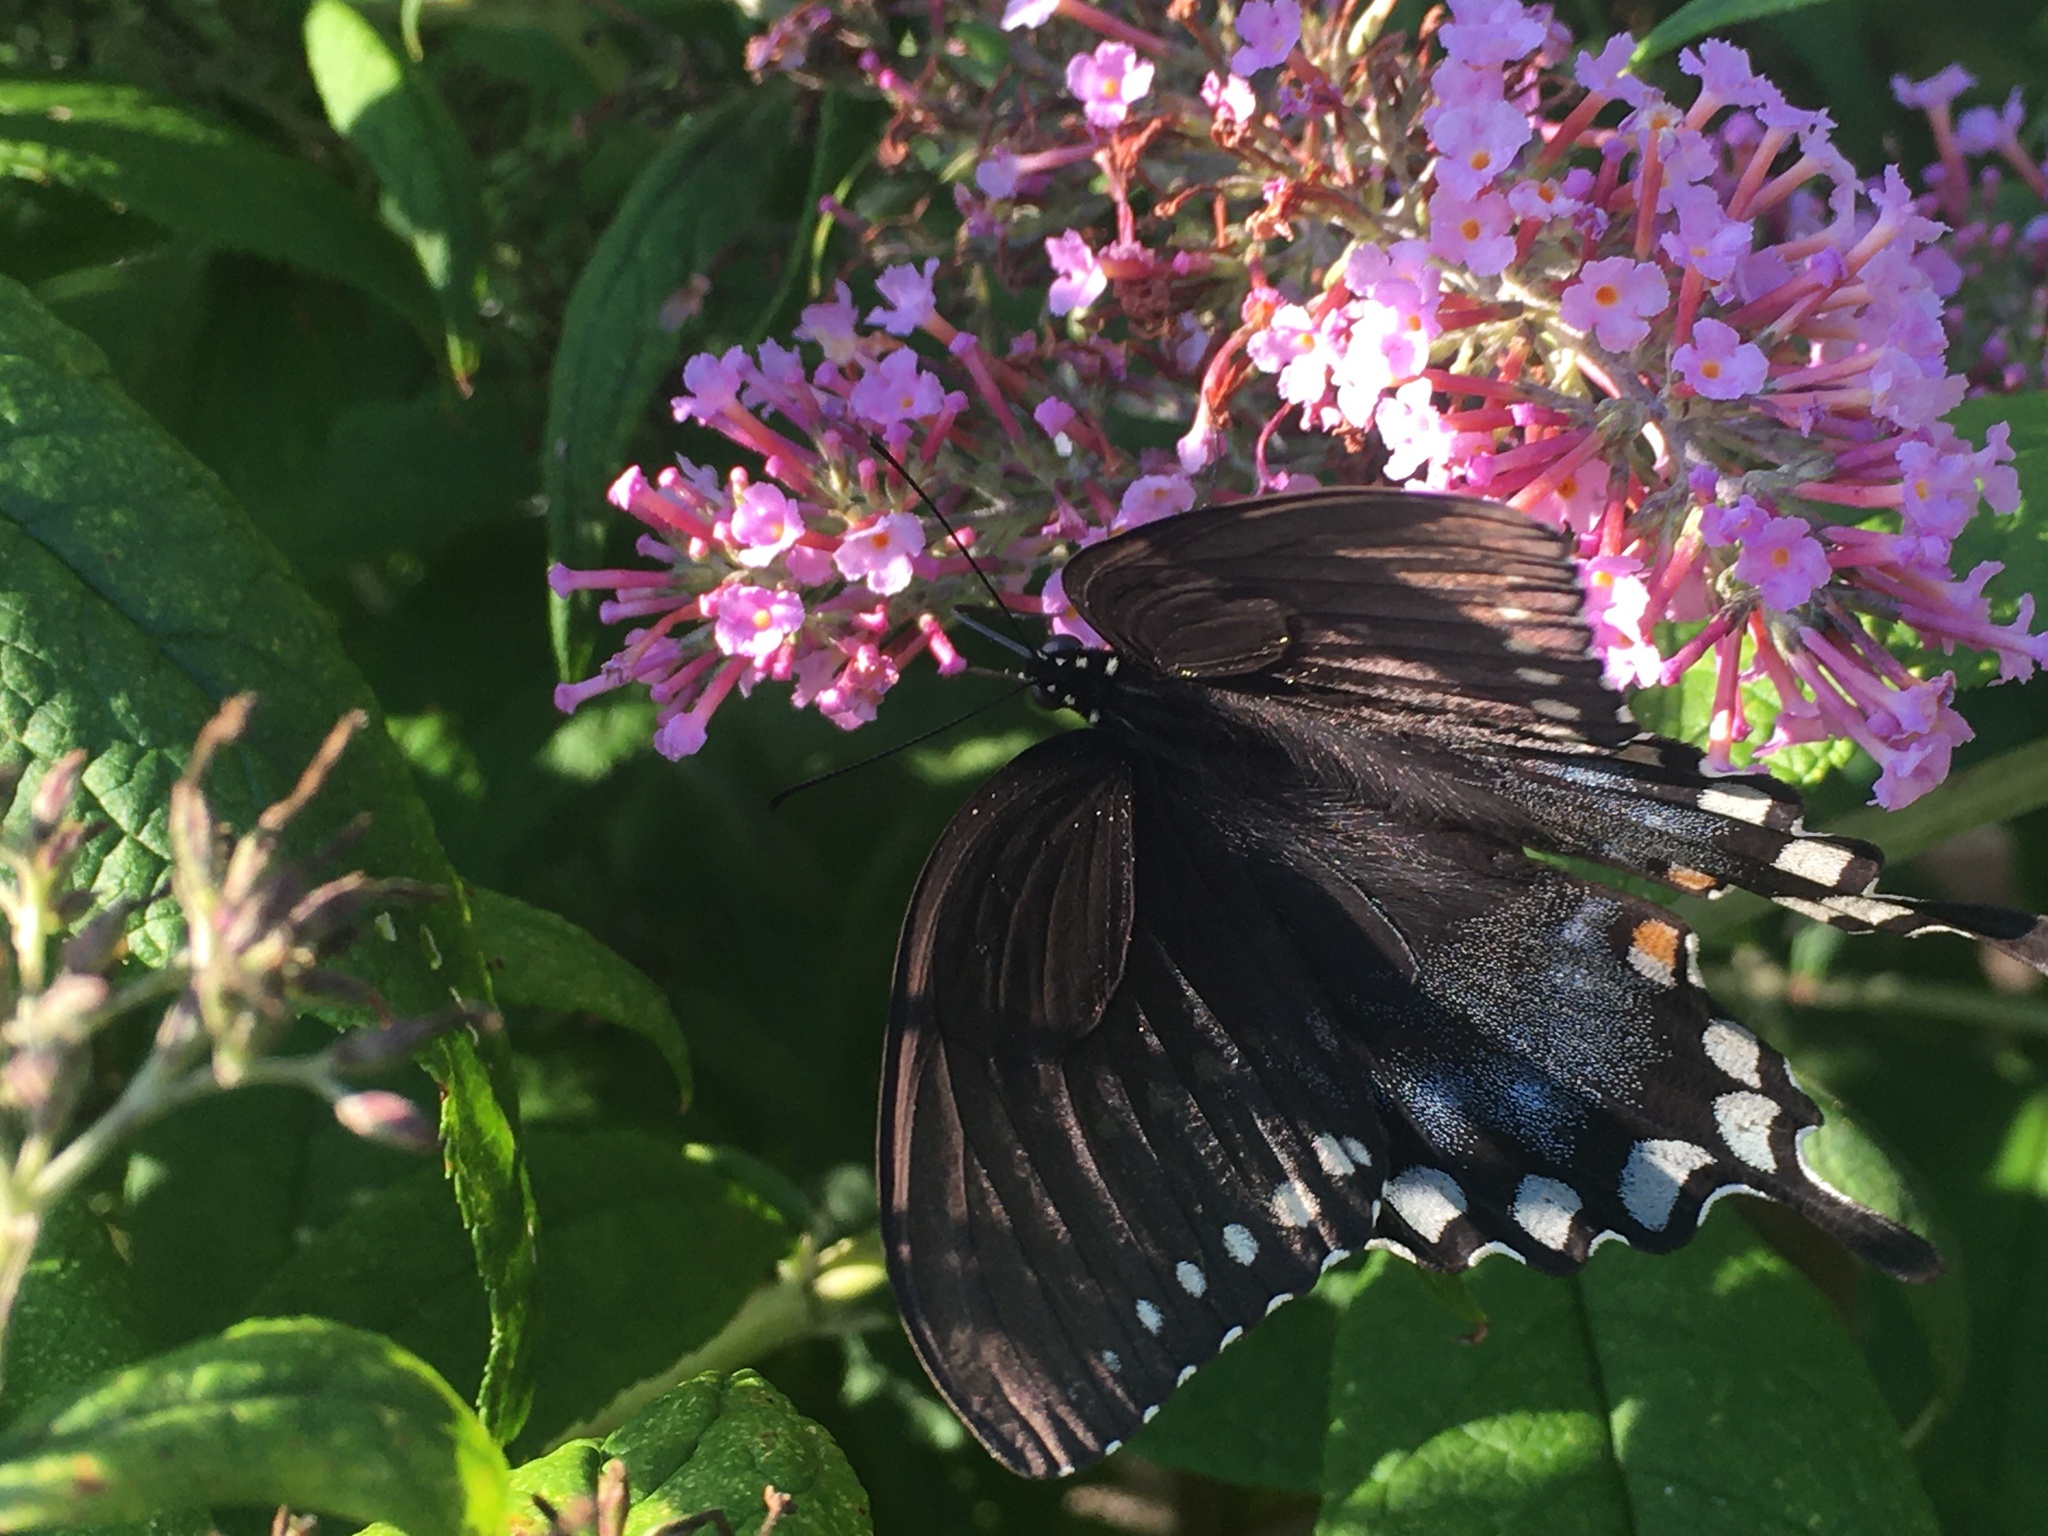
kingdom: Animalia
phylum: Arthropoda
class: Insecta
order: Lepidoptera
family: Papilionidae
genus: Papilio
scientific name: Papilio troilus
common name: Spicebush swallowtail
